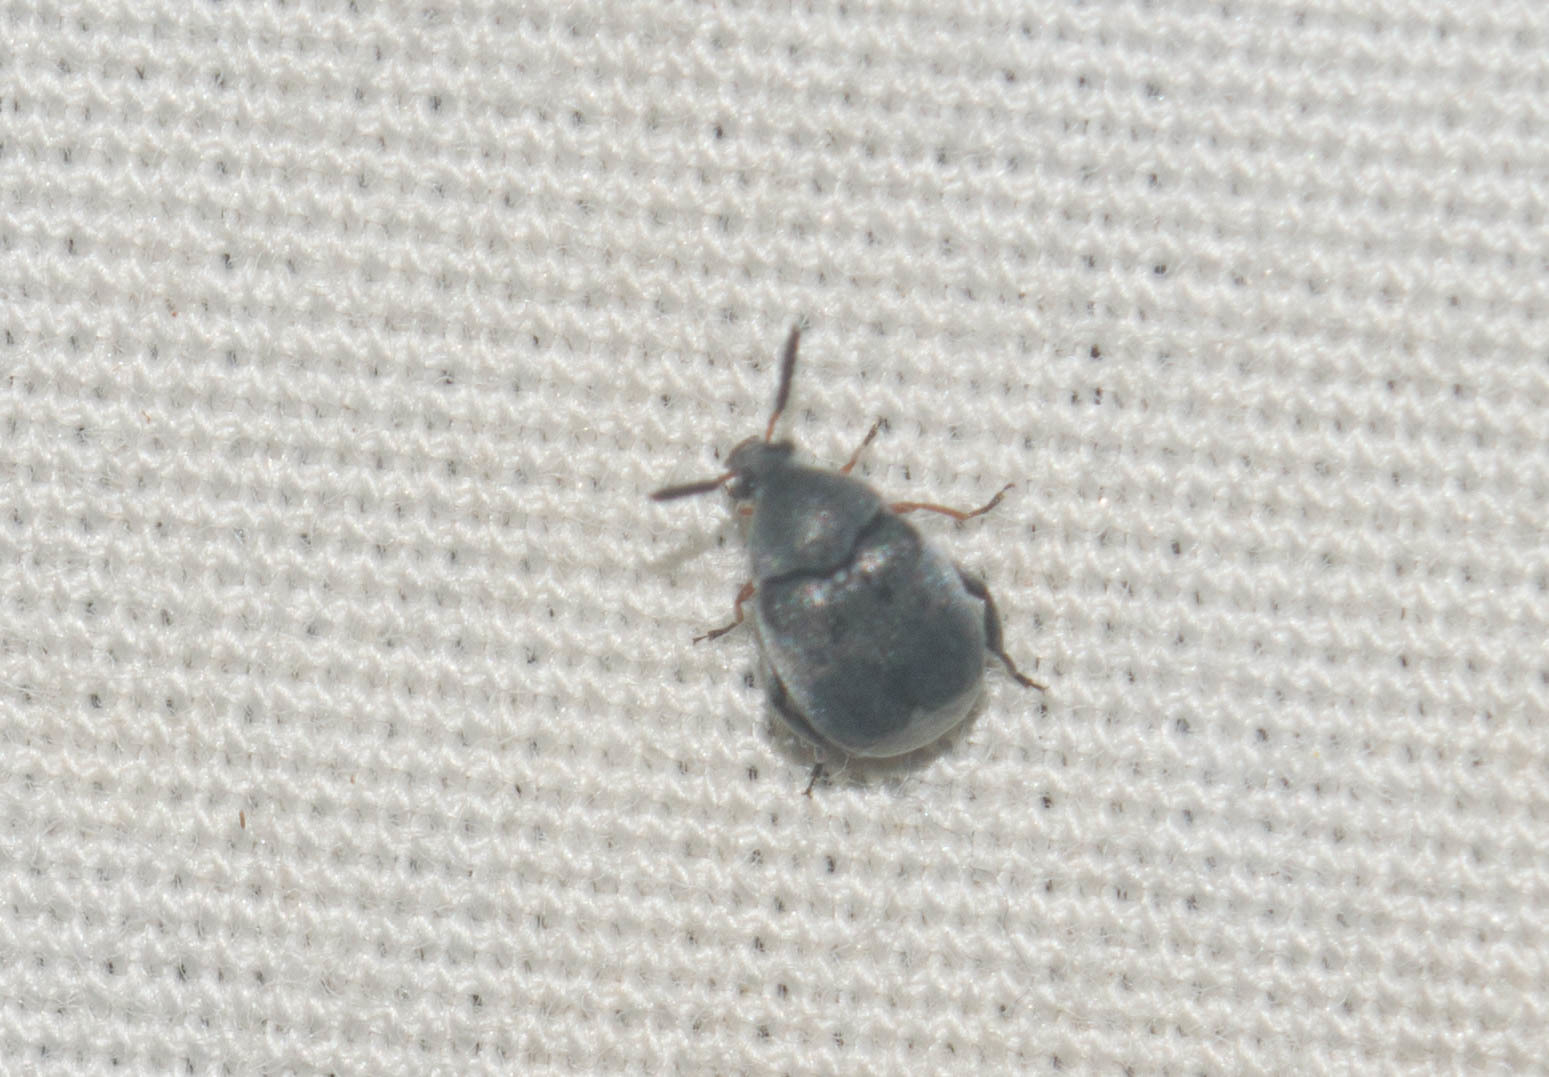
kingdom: Animalia
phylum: Arthropoda
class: Insecta
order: Coleoptera
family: Chrysomelidae
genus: Stator
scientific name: Stator pruininus
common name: Leaf beetle
